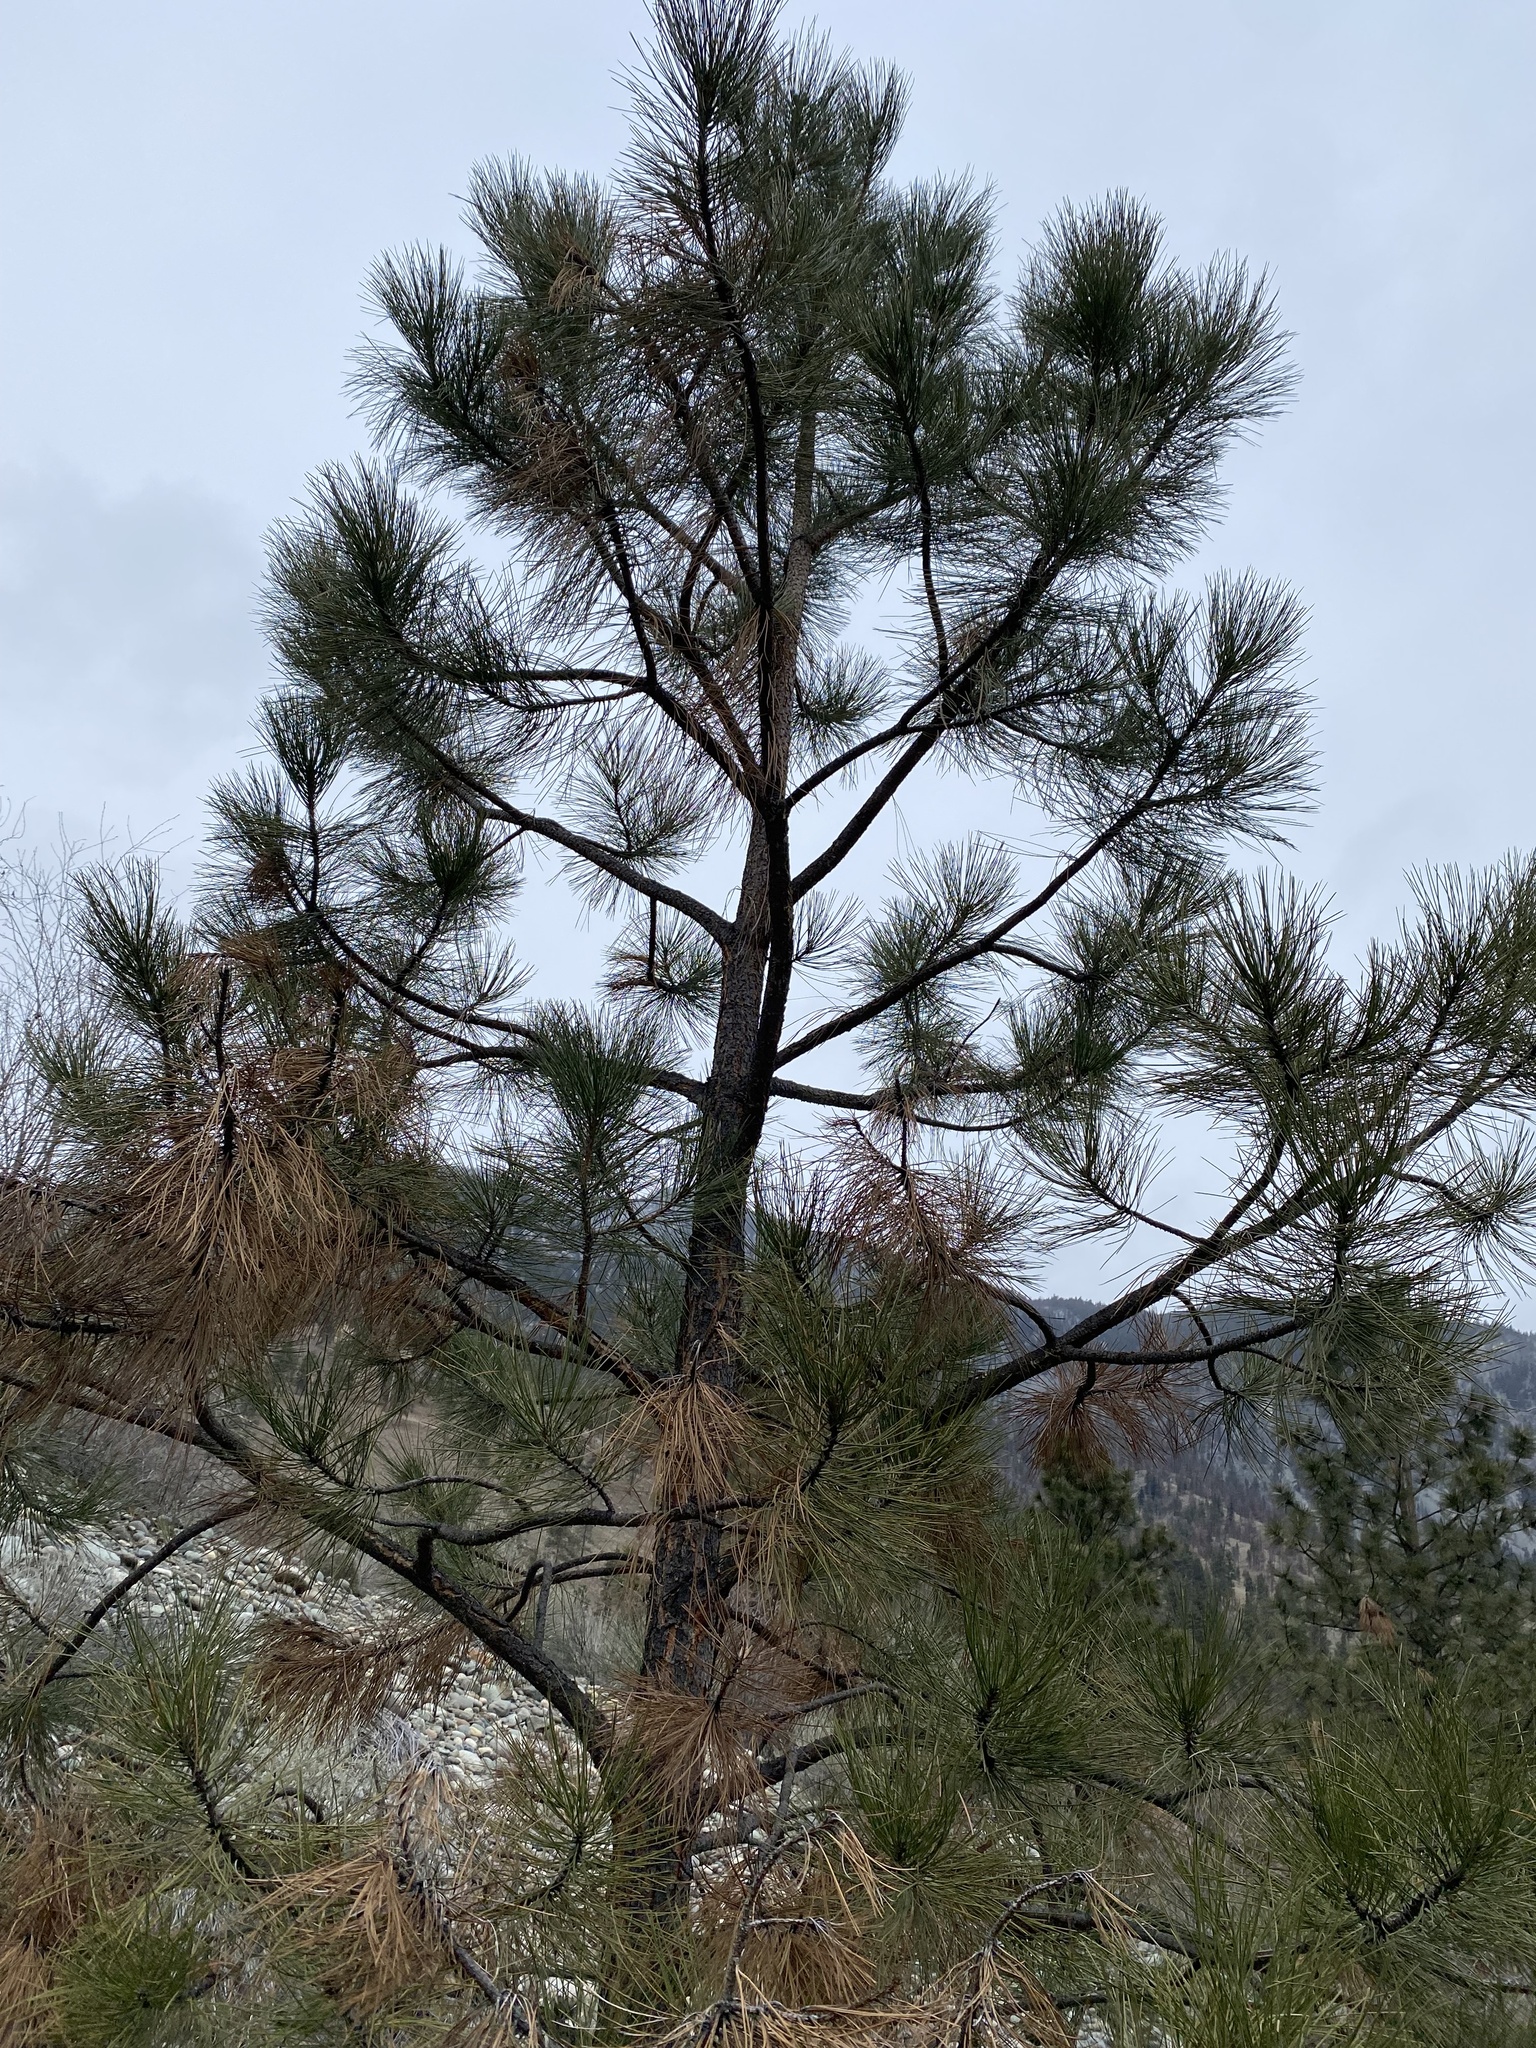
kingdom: Plantae
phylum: Tracheophyta
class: Pinopsida
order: Pinales
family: Pinaceae
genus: Pinus
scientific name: Pinus ponderosa
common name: Western yellow-pine
